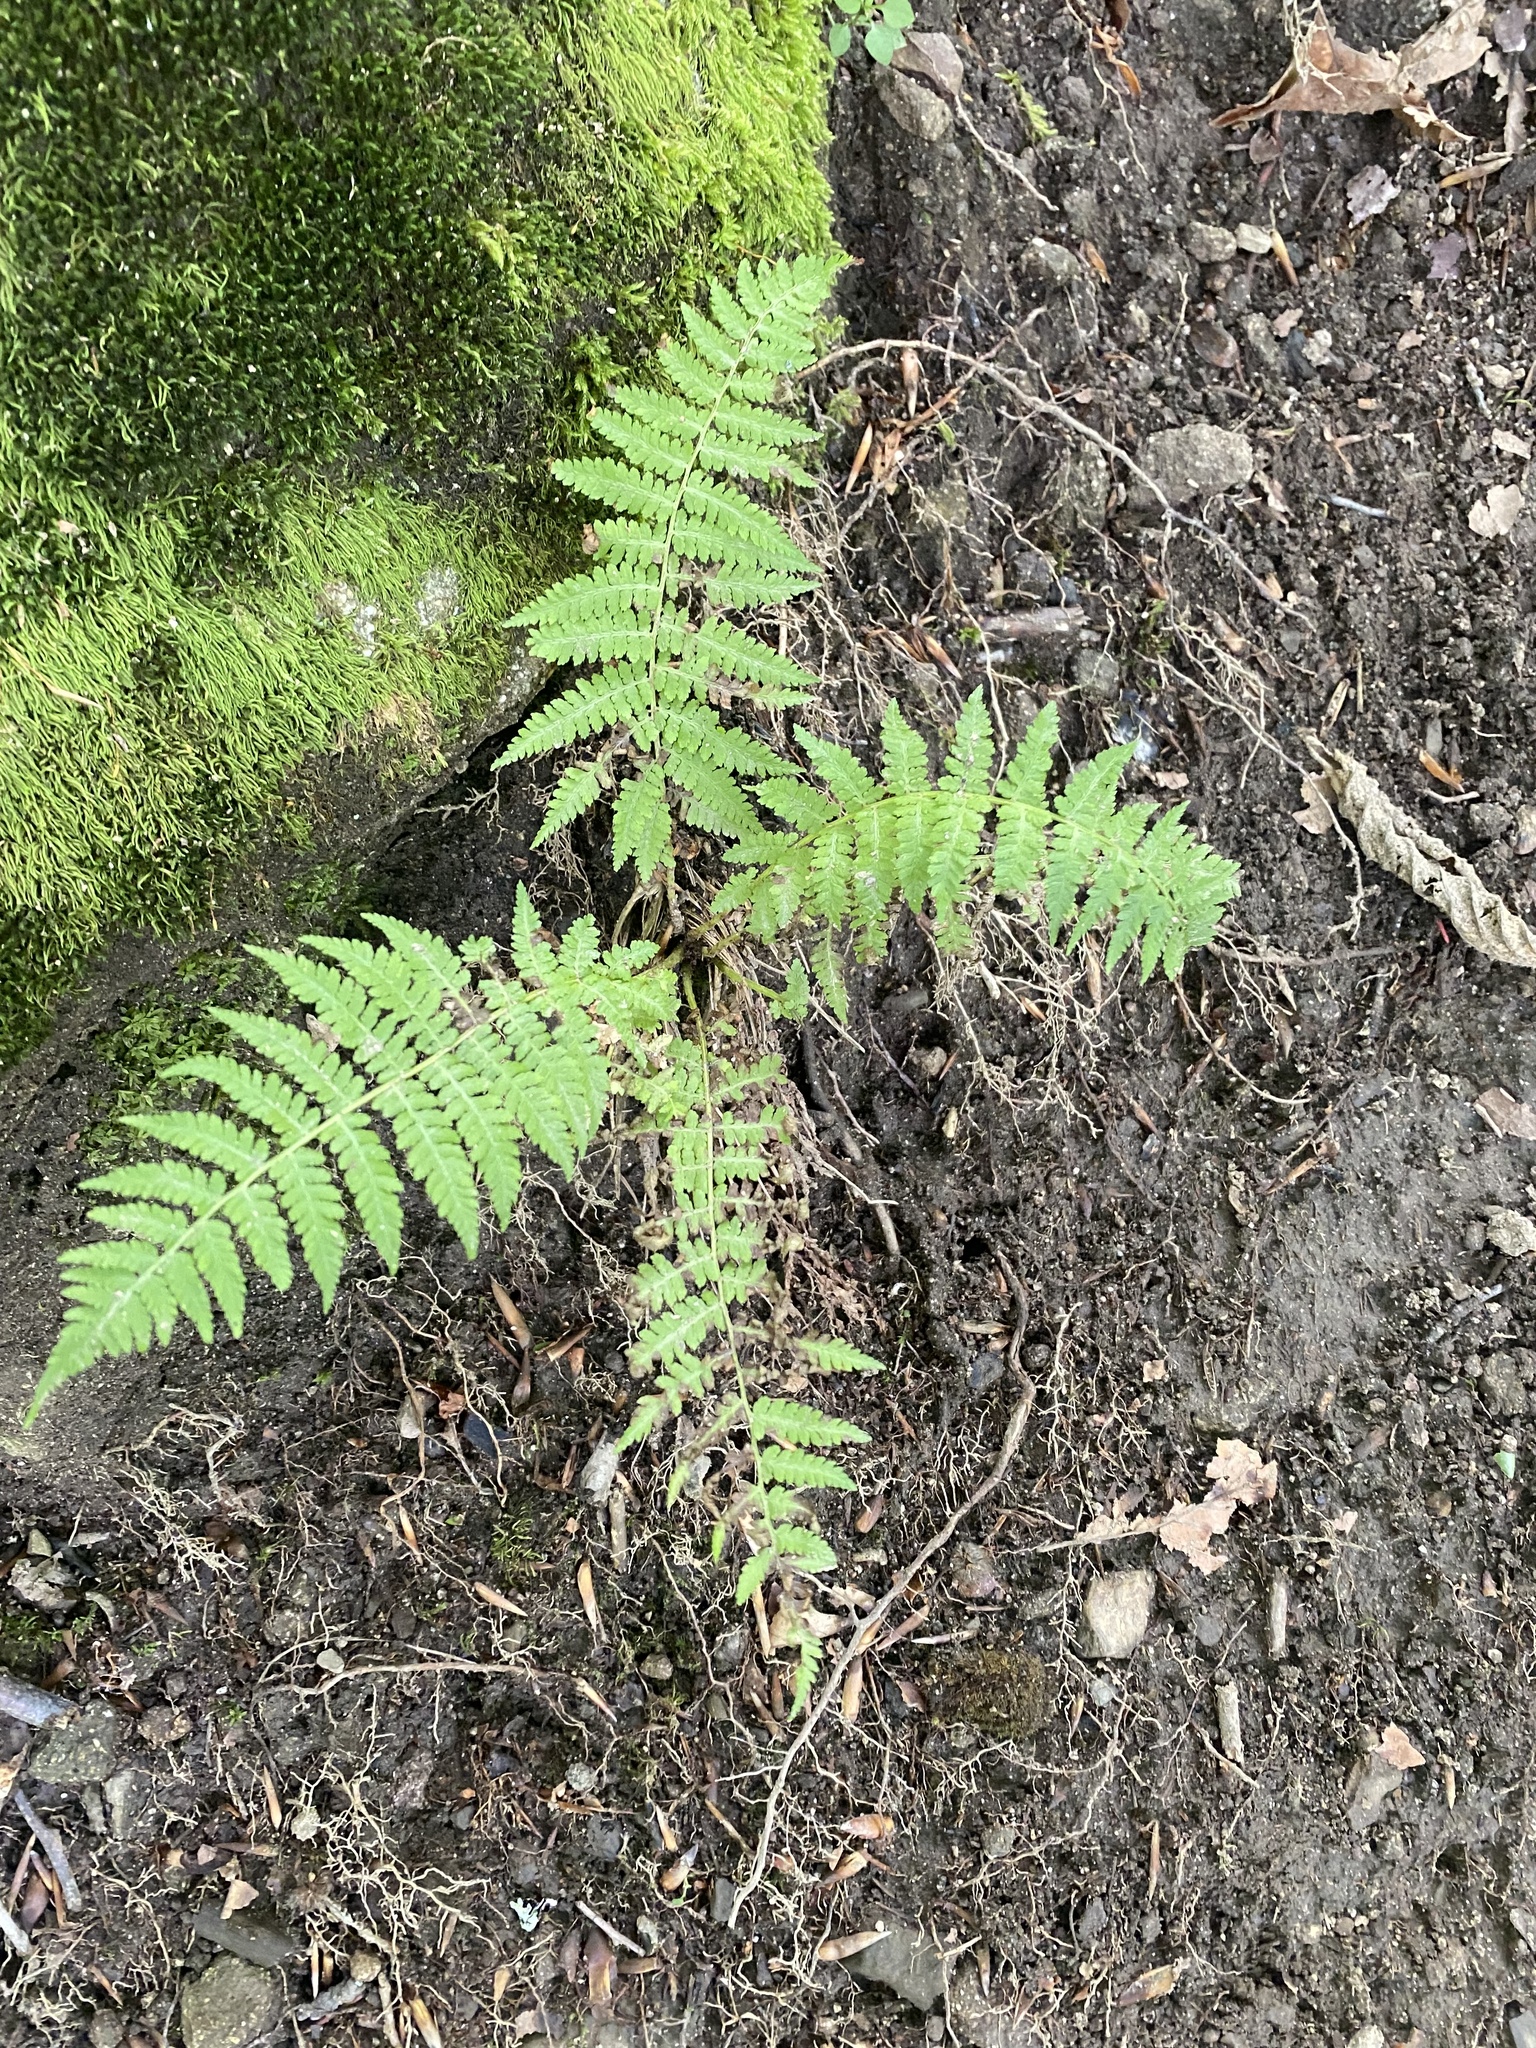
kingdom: Plantae
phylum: Tracheophyta
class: Polypodiopsida
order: Polypodiales
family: Athyriaceae
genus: Athyrium
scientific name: Athyrium filix-femina
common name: Lady fern
